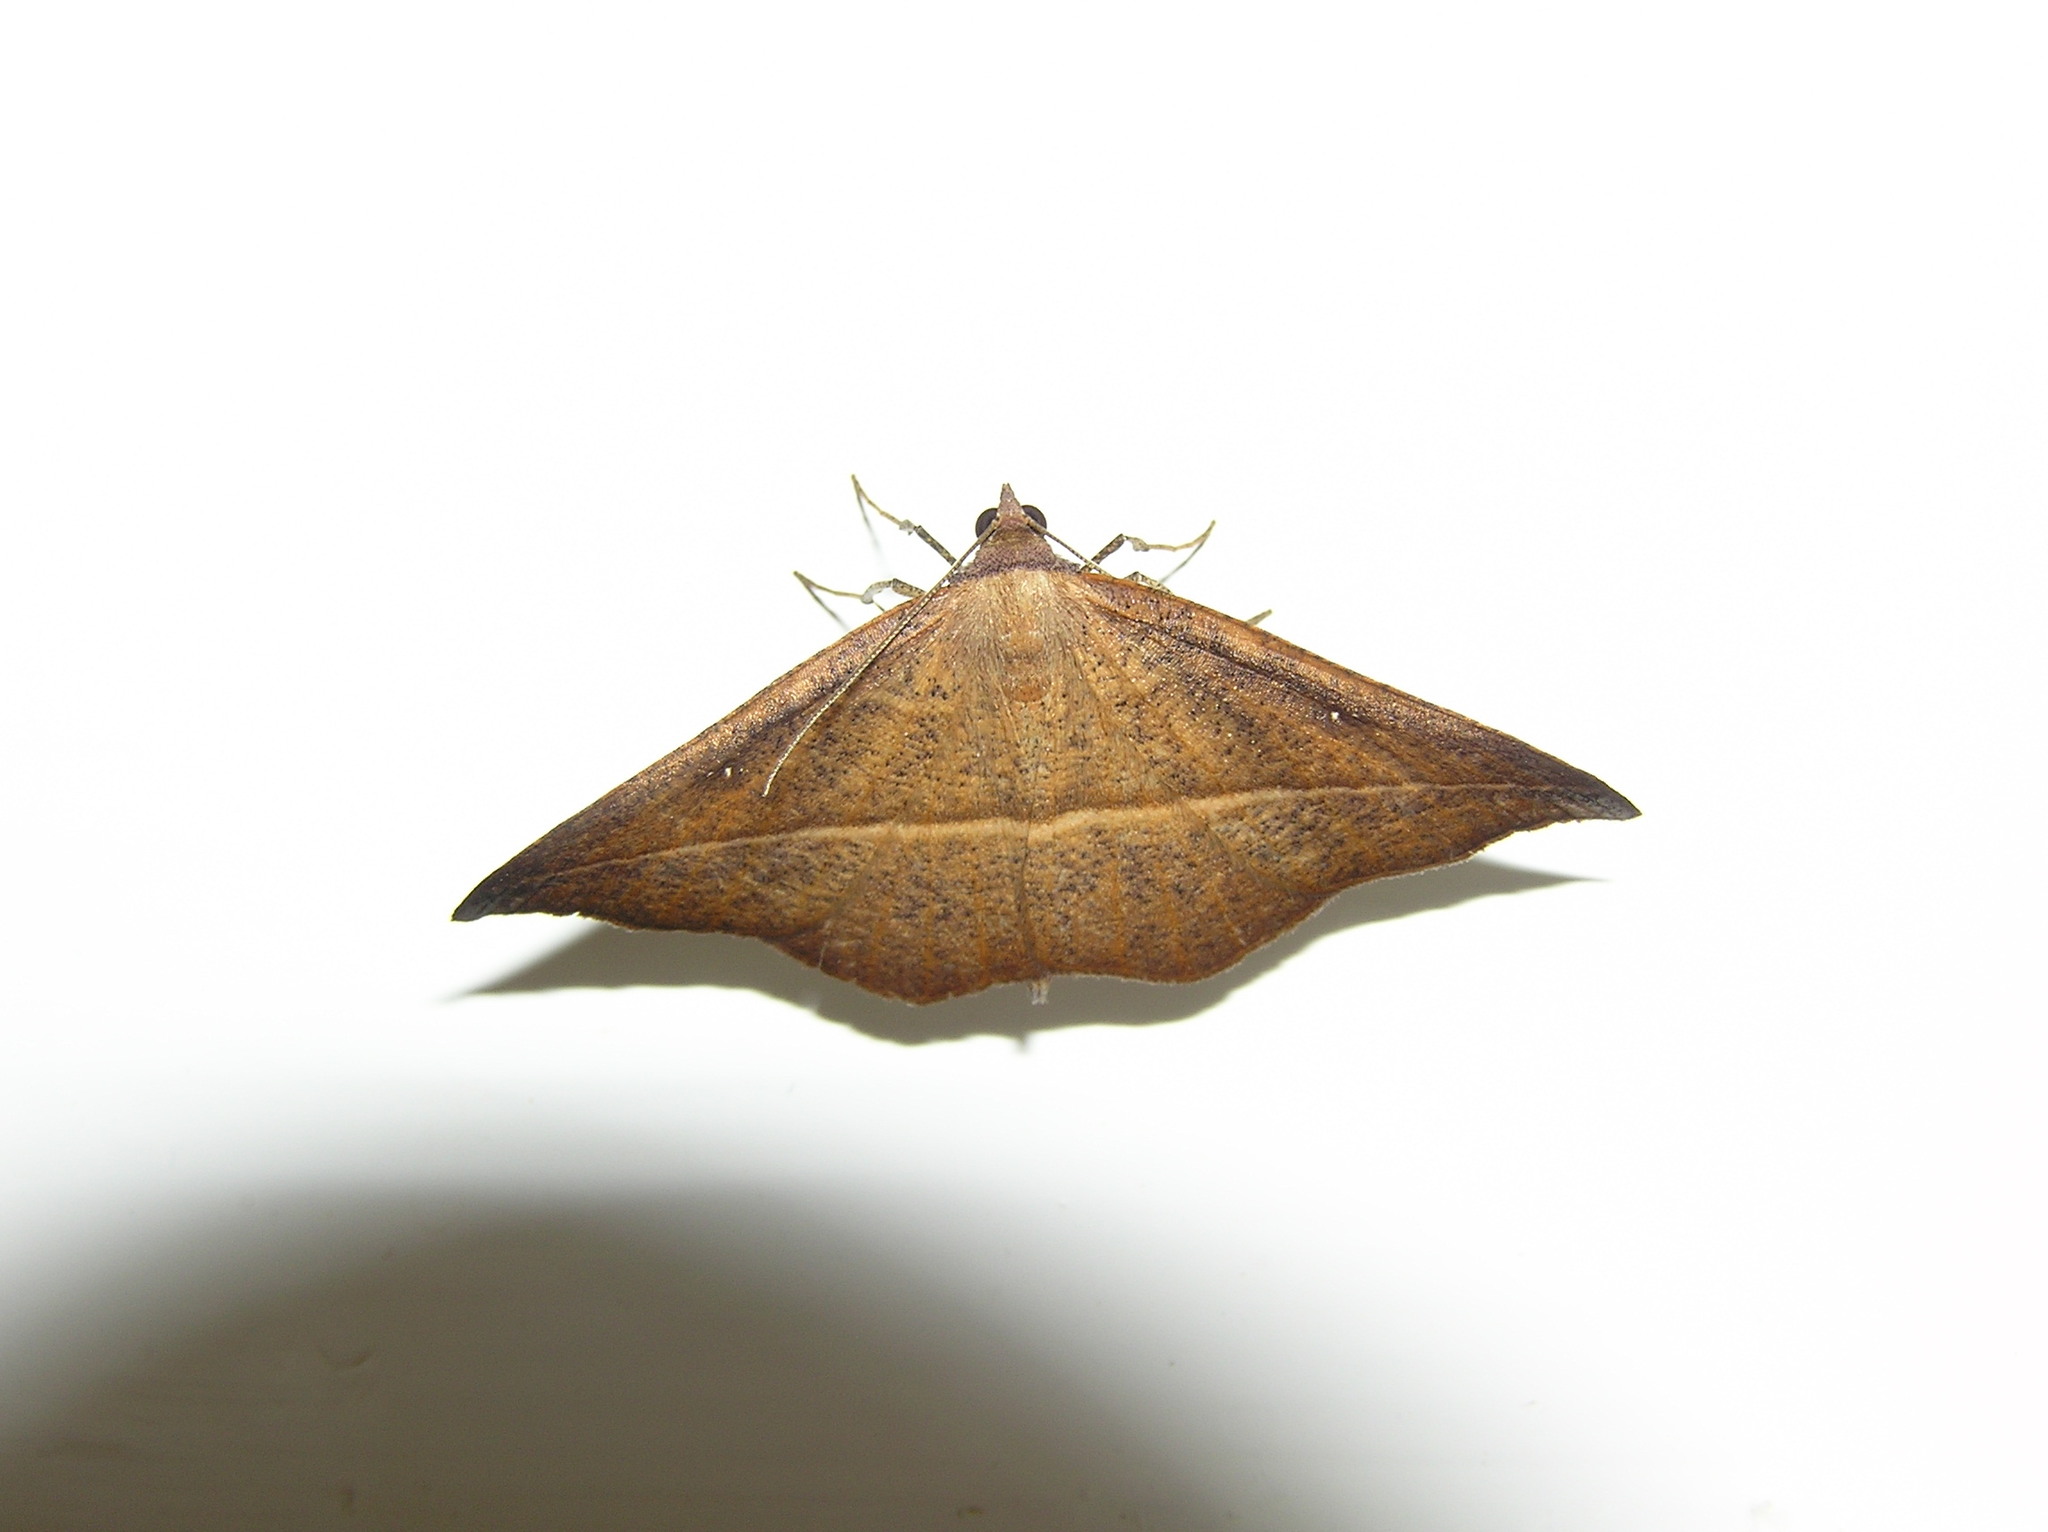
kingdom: Animalia
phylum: Arthropoda
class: Insecta
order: Lepidoptera
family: Geometridae
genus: Sarisa
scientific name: Sarisa muriferata
